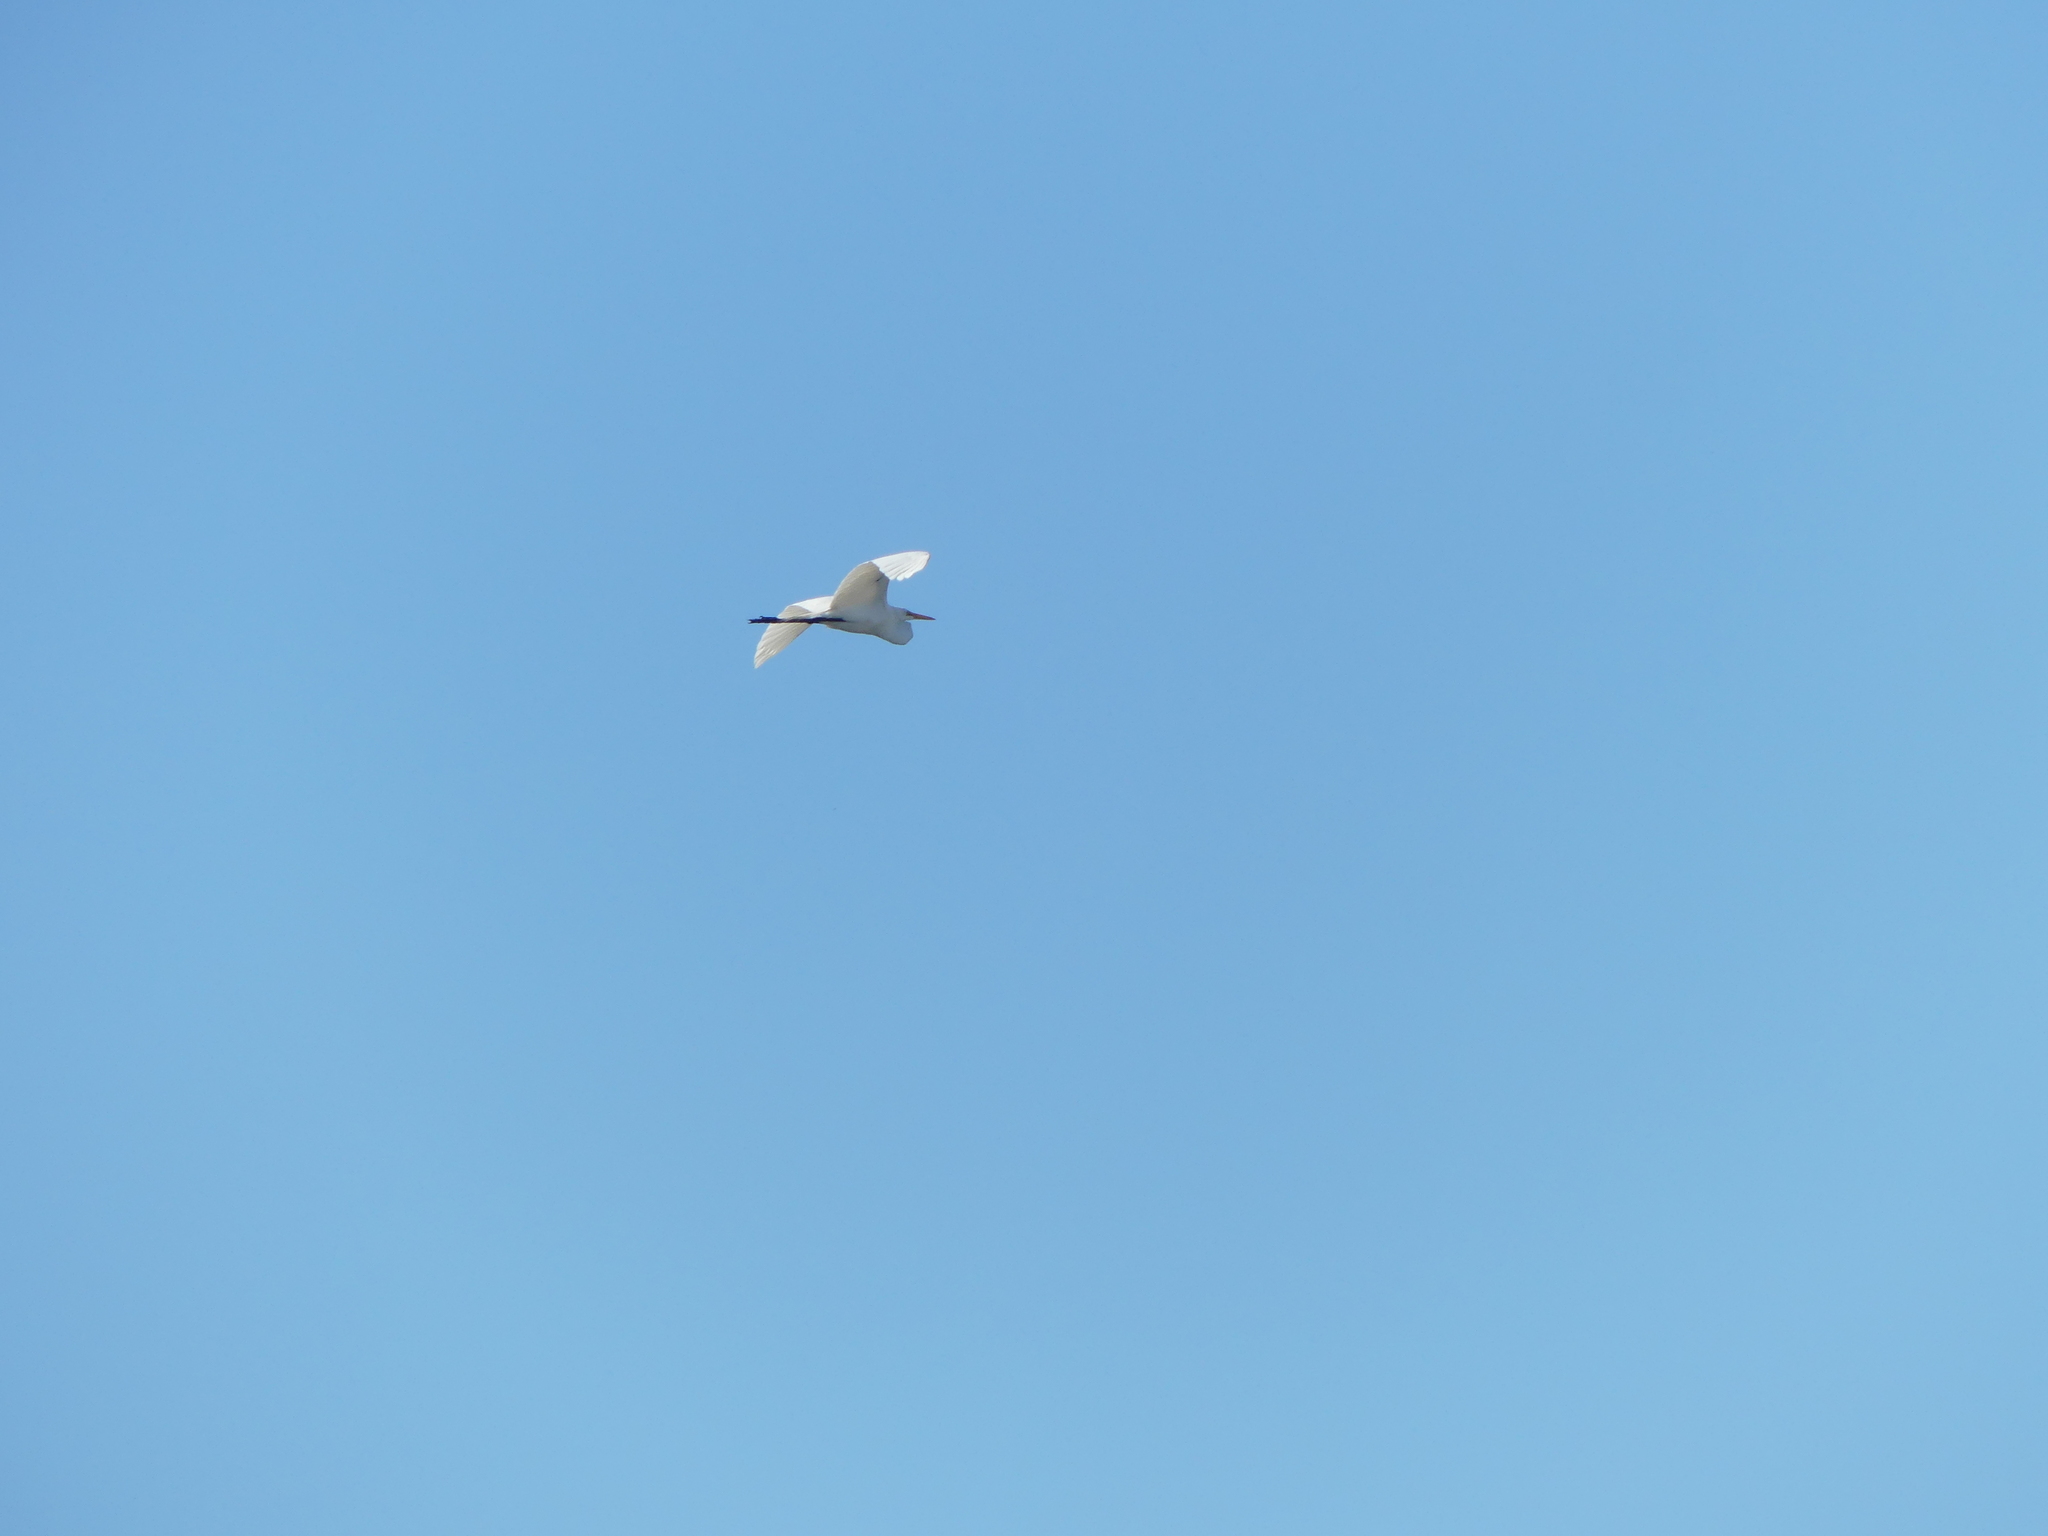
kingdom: Animalia
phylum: Chordata
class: Aves
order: Pelecaniformes
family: Ardeidae
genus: Ardea
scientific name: Ardea alba
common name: Great egret
